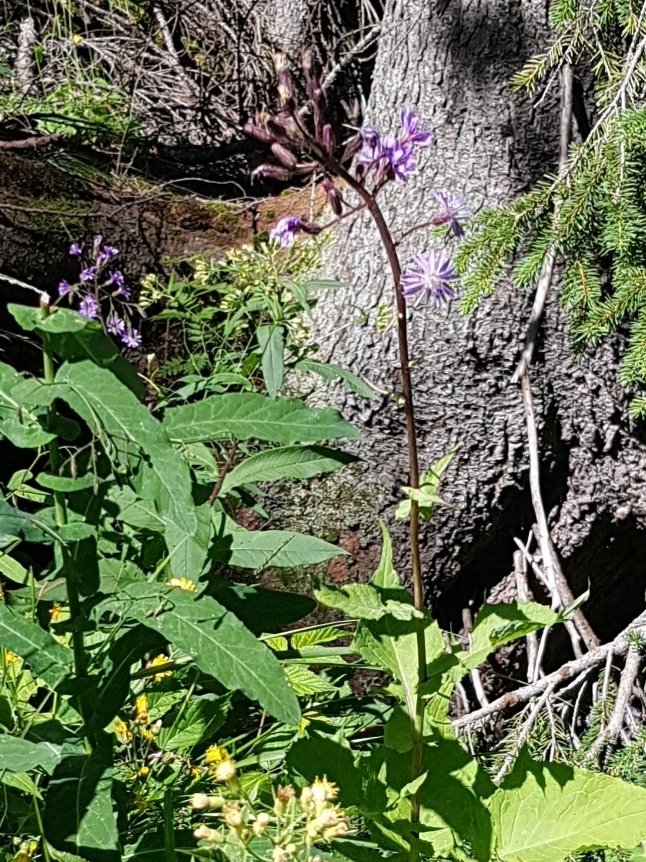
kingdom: Plantae
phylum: Tracheophyta
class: Magnoliopsida
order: Asterales
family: Asteraceae
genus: Cicerbita
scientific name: Cicerbita alpina
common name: Alpine blue-sow-thistle
